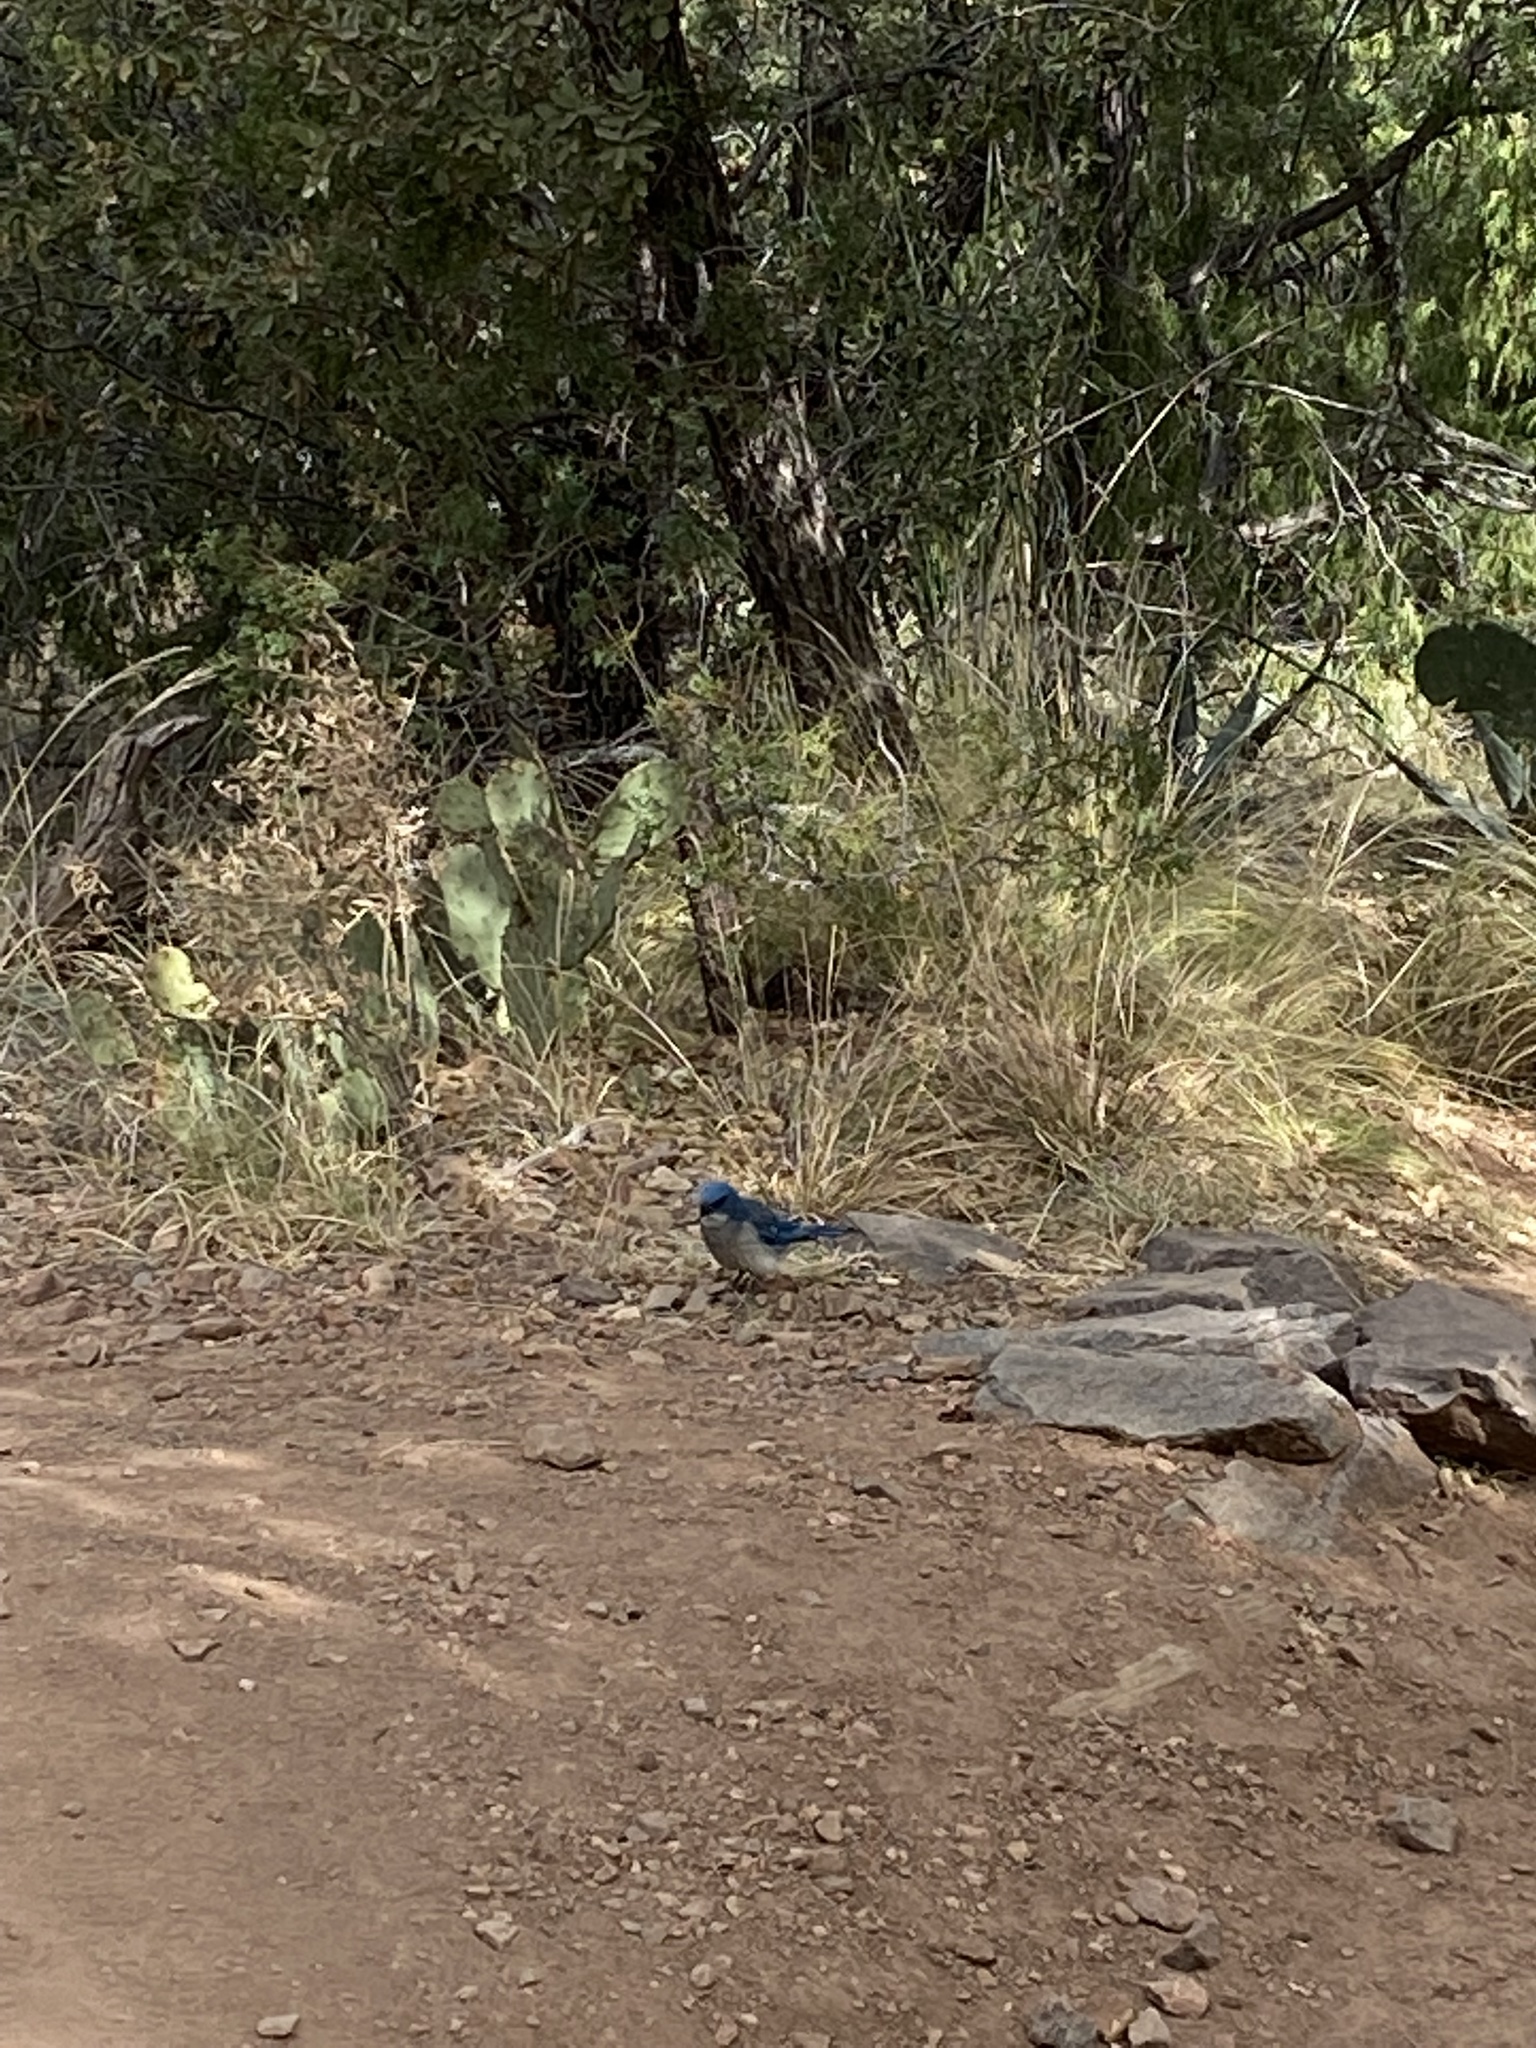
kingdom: Animalia
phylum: Chordata
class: Aves
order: Passeriformes
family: Corvidae
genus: Aphelocoma
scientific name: Aphelocoma wollweberi
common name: Mexican jay
